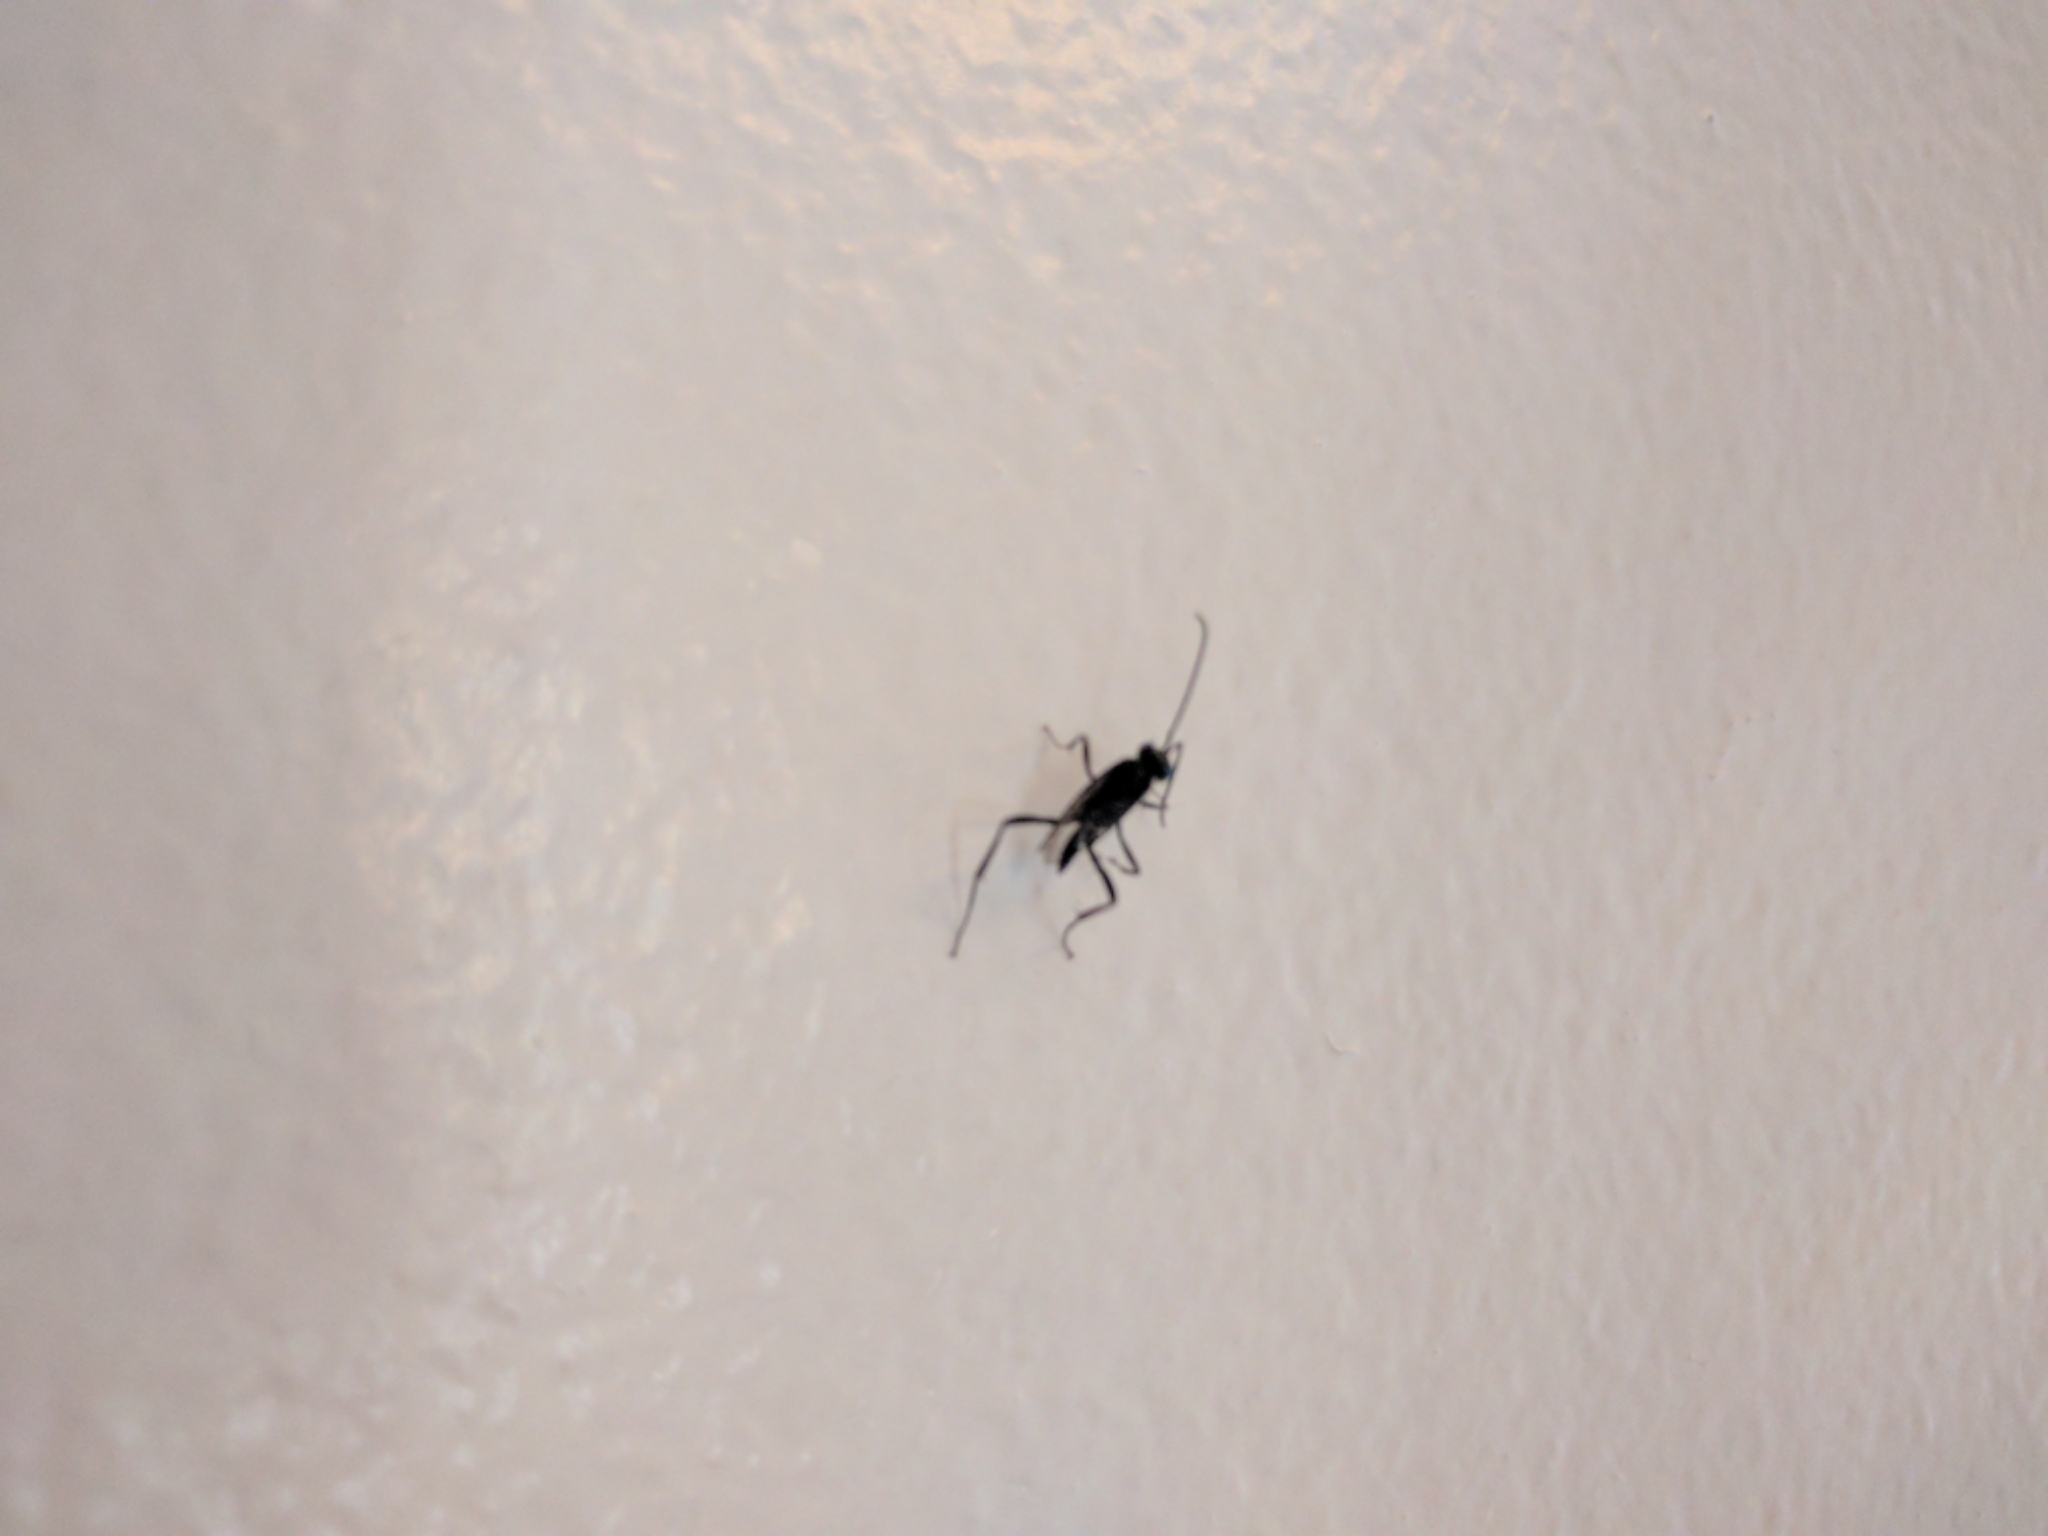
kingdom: Animalia
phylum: Arthropoda
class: Insecta
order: Hymenoptera
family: Evaniidae
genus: Evania
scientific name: Evania appendigaster
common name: Ensign wasp
